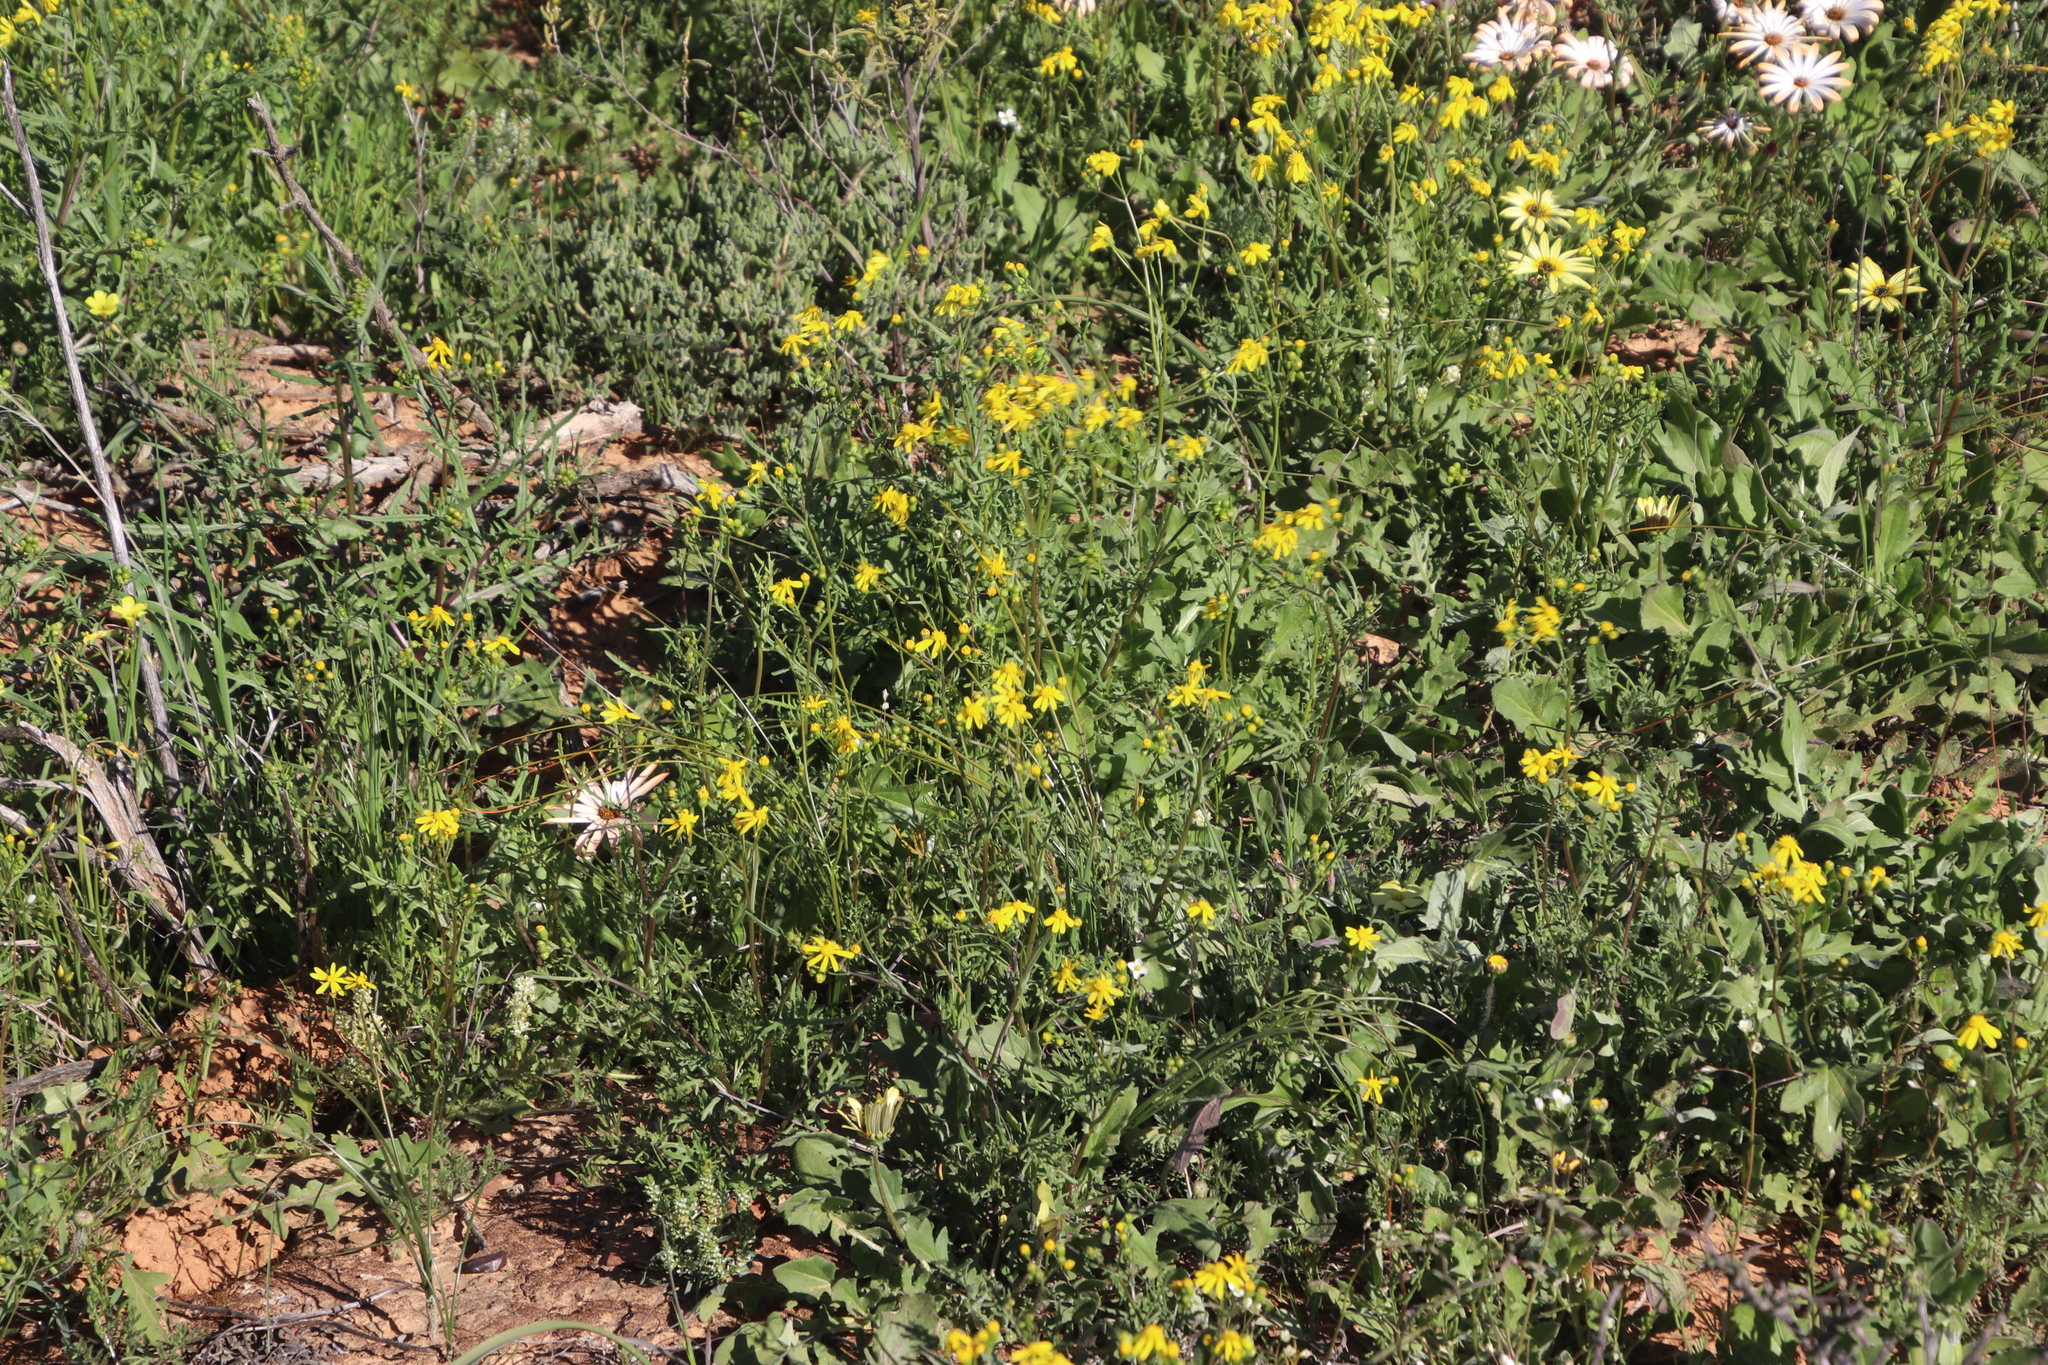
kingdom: Plantae
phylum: Tracheophyta
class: Magnoliopsida
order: Asterales
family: Asteraceae
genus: Senecio
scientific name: Senecio abruptus
